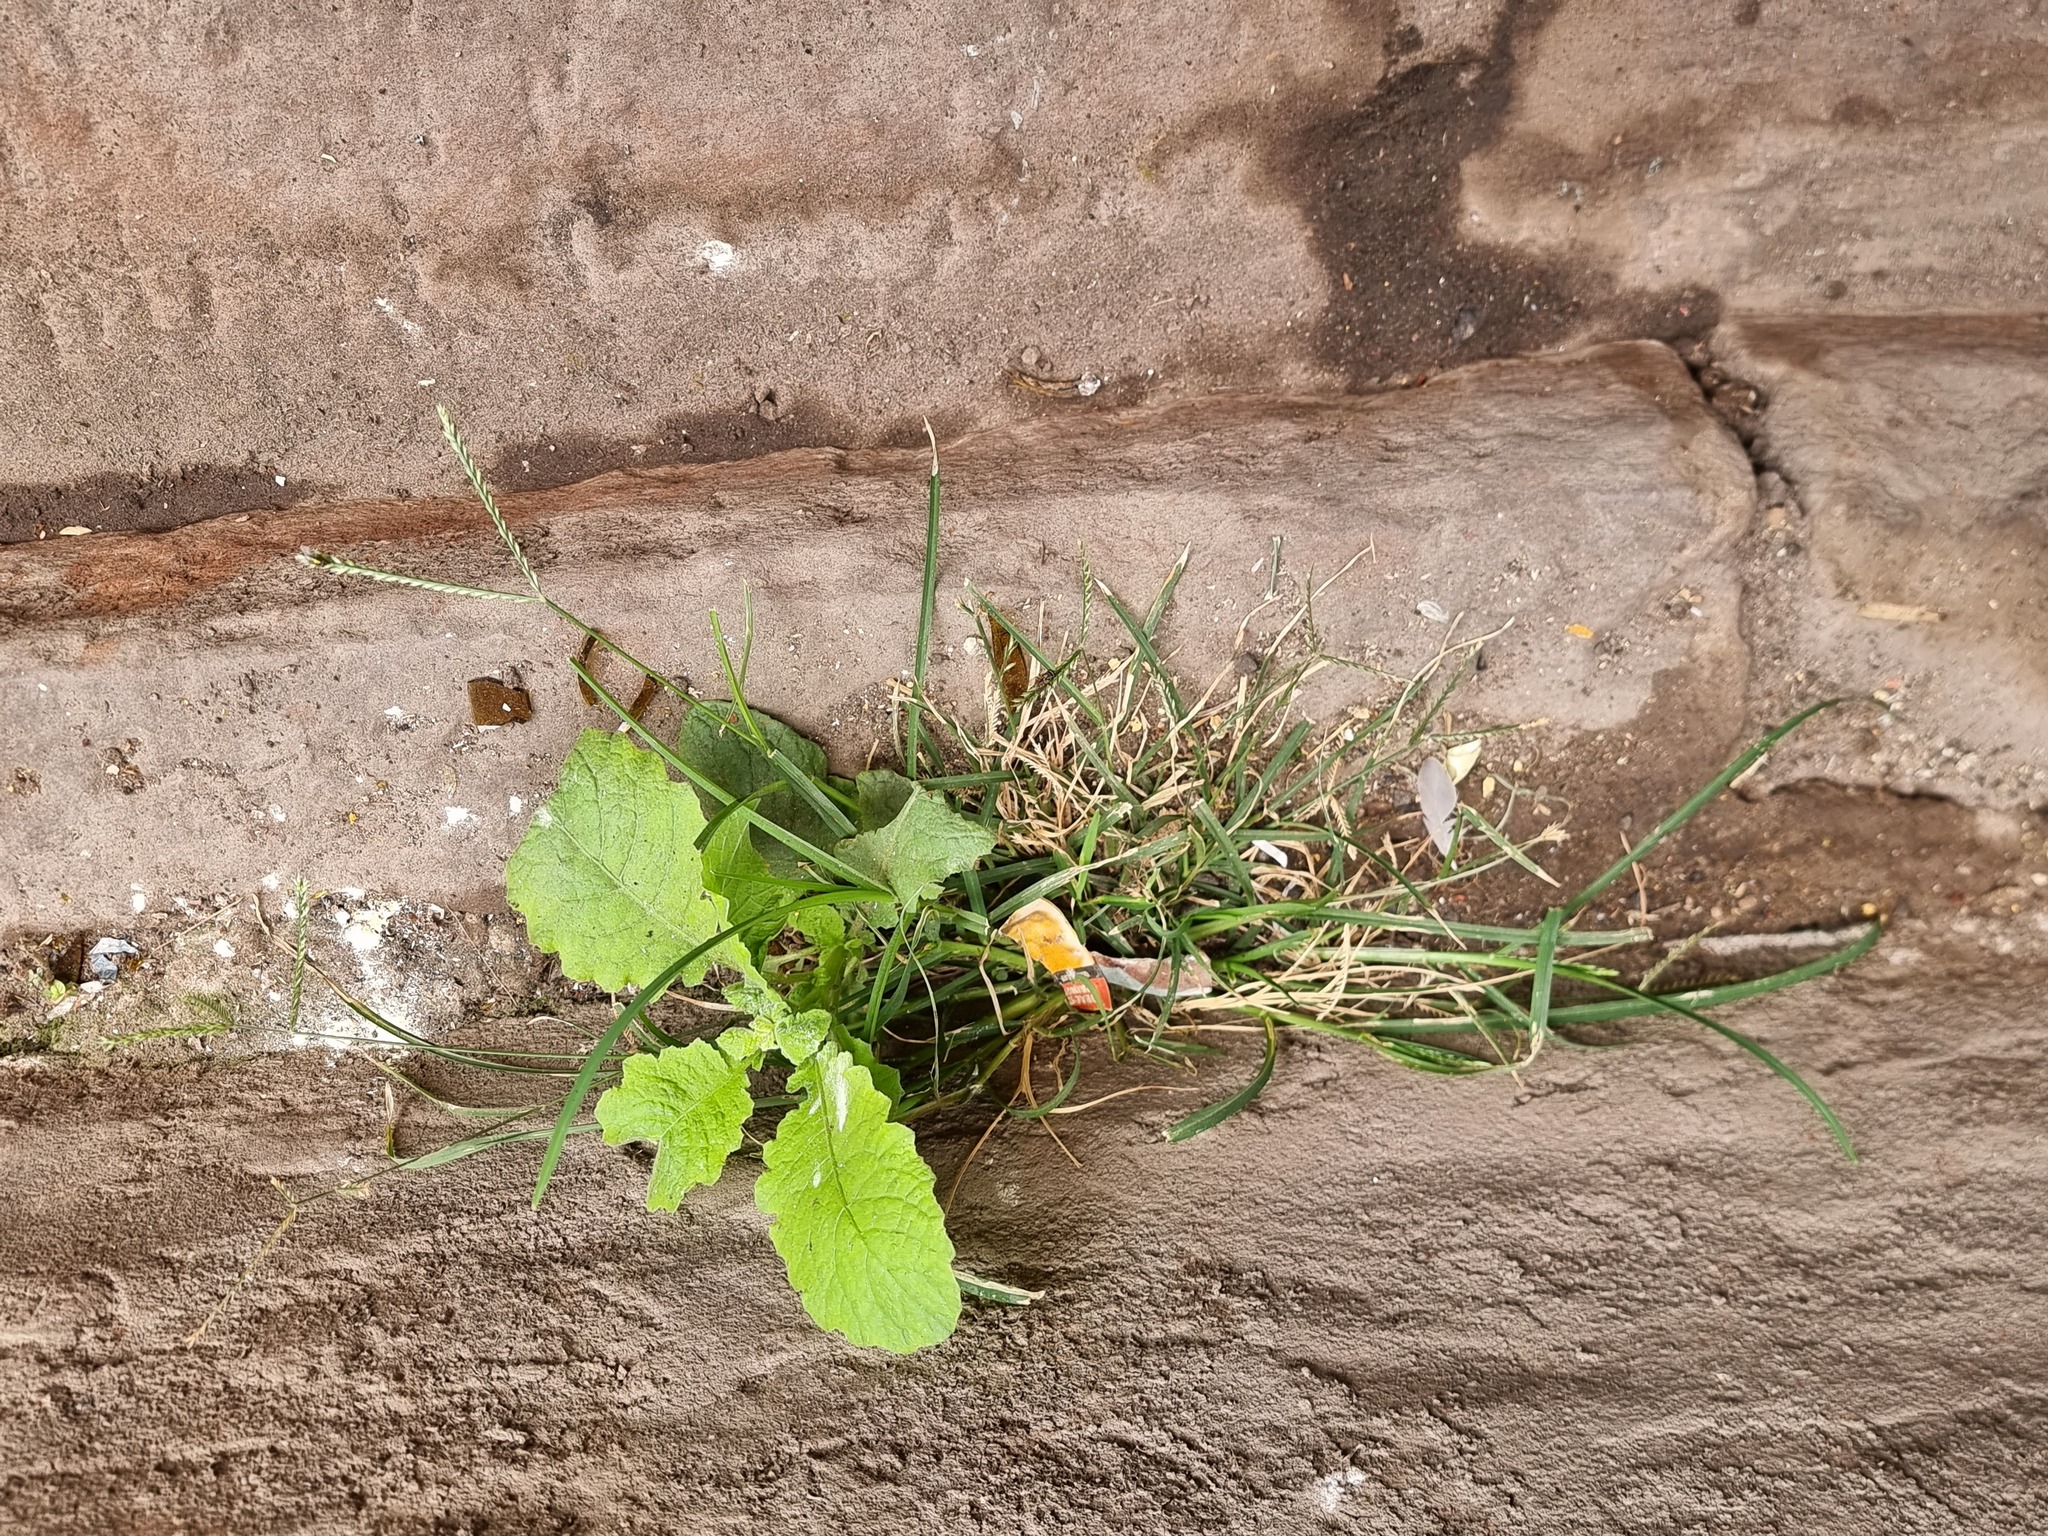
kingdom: Plantae
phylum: Tracheophyta
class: Liliopsida
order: Poales
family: Poaceae
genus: Eleusine
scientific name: Eleusine indica
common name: Yard-grass
